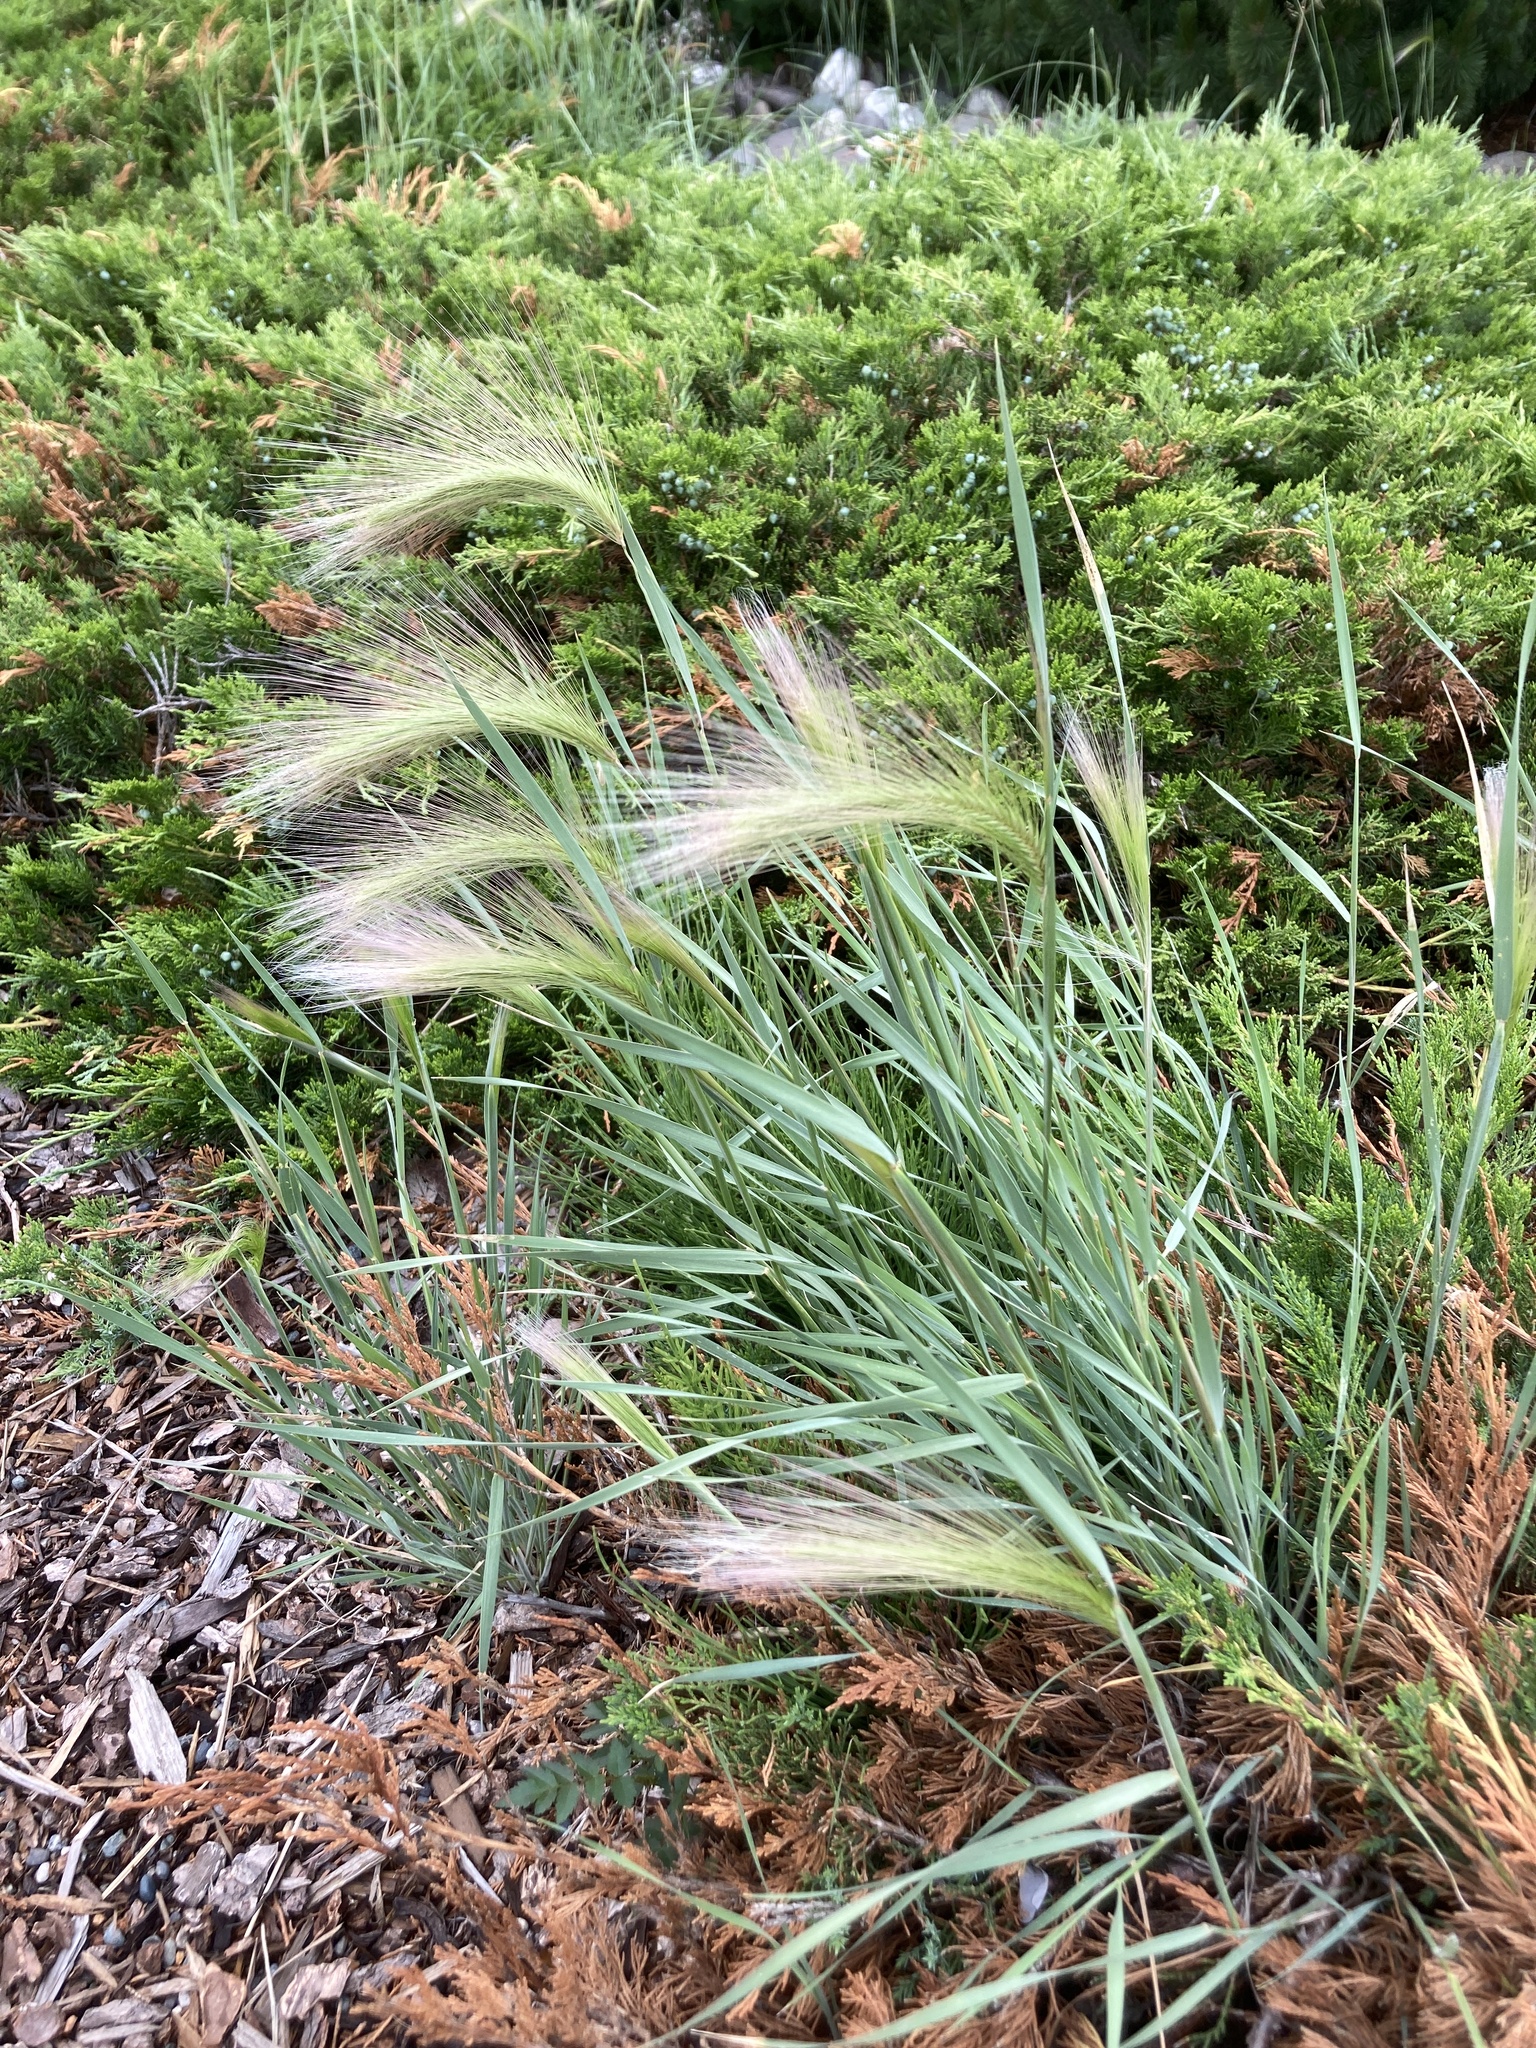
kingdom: Plantae
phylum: Tracheophyta
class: Liliopsida
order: Poales
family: Poaceae
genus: Hordeum
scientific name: Hordeum jubatum
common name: Foxtail barley
